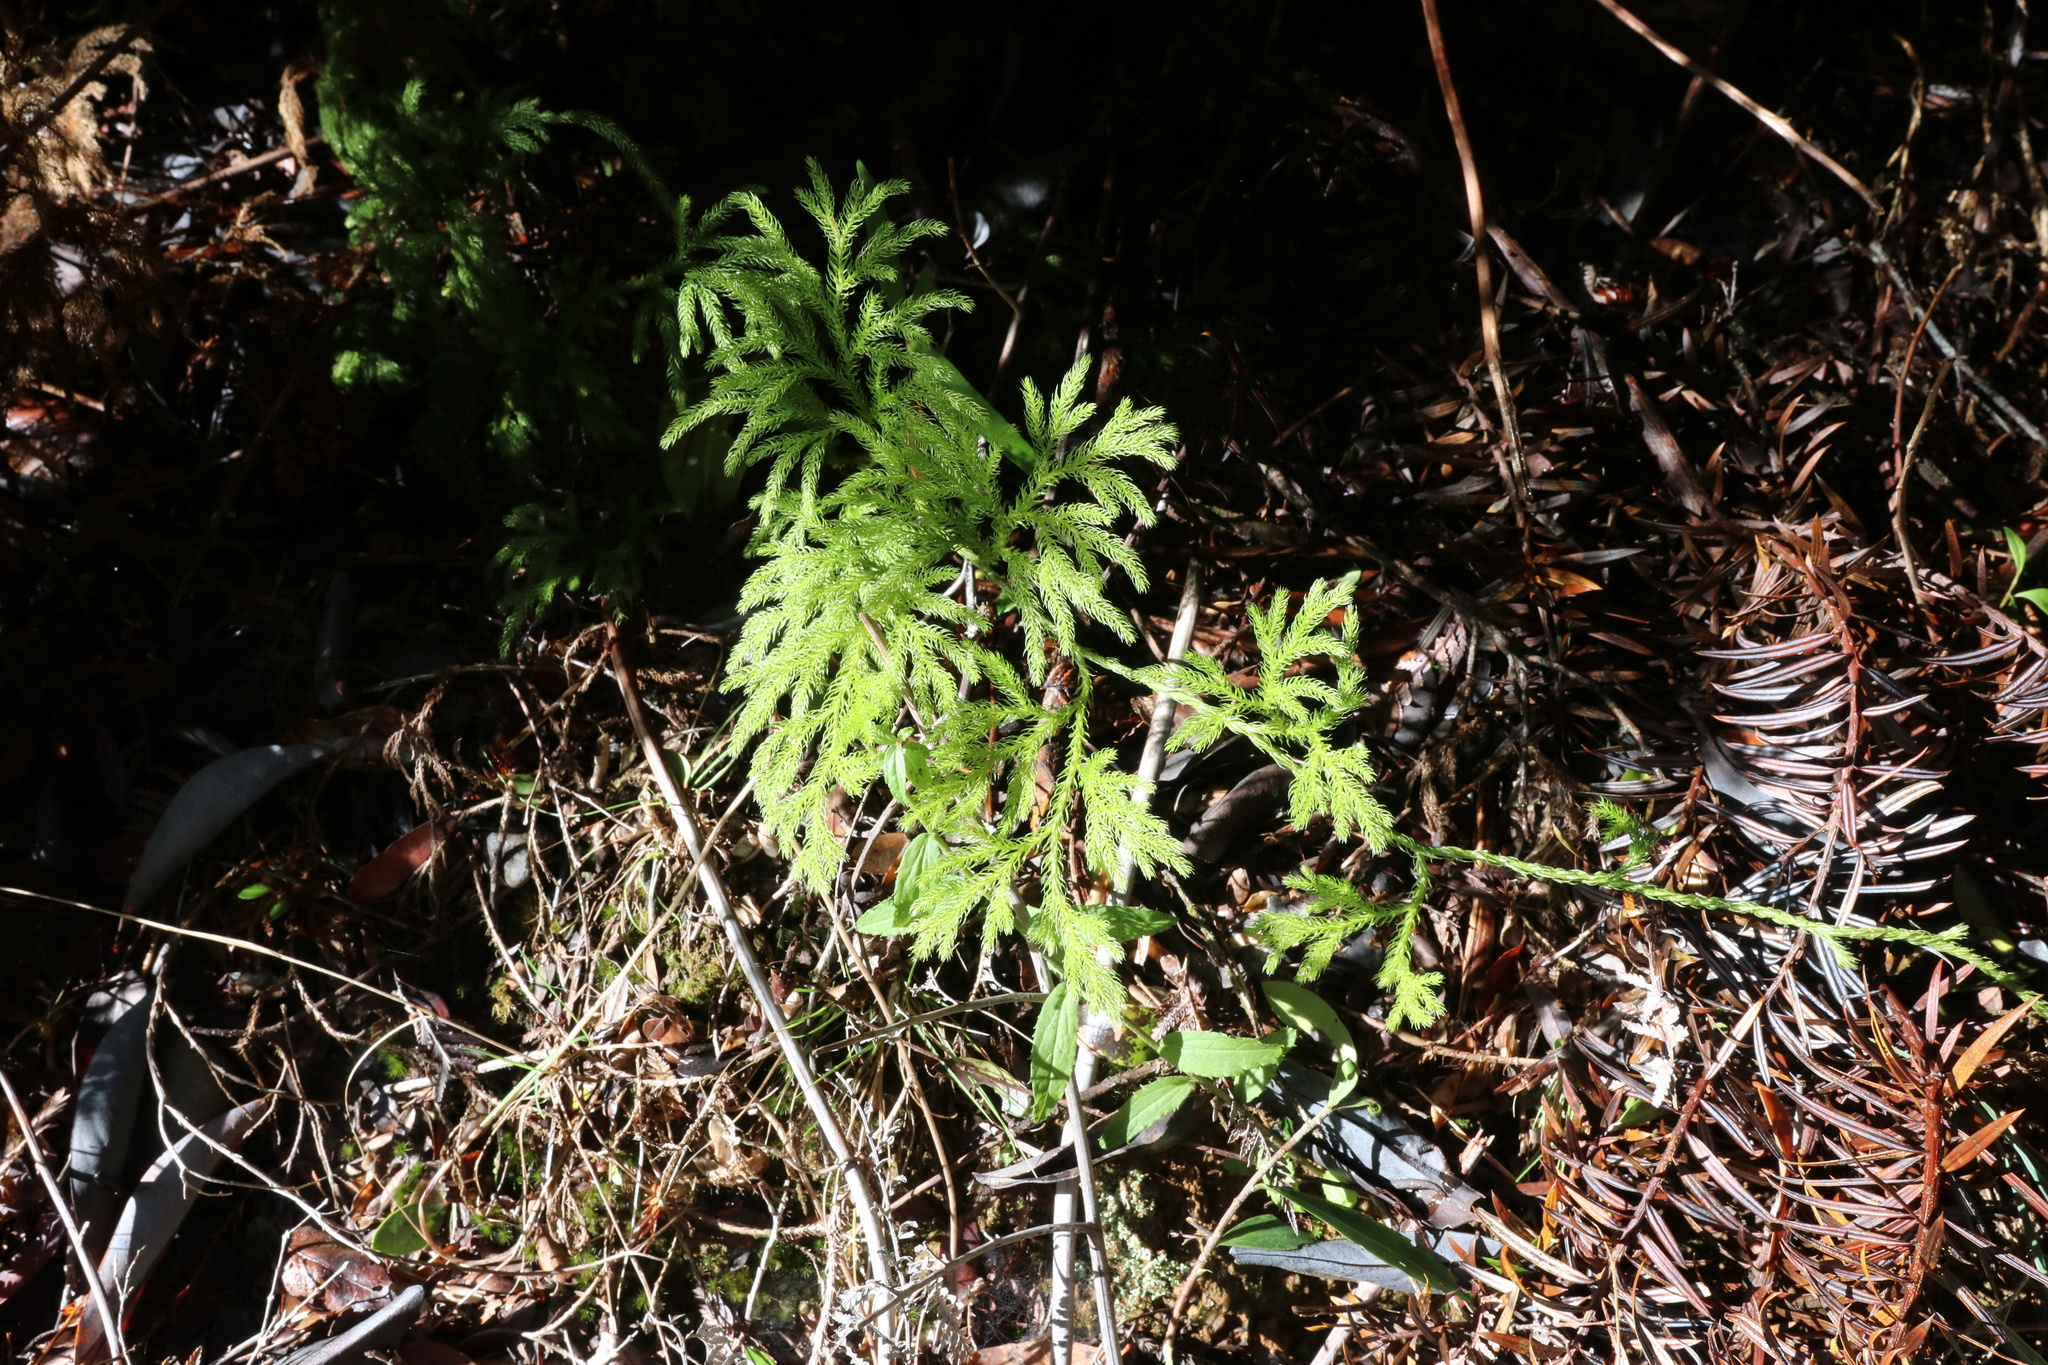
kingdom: Plantae
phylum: Tracheophyta
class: Lycopodiopsida
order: Lycopodiales
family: Lycopodiaceae
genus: Austrolycopodium
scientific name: Austrolycopodium paniculatum
